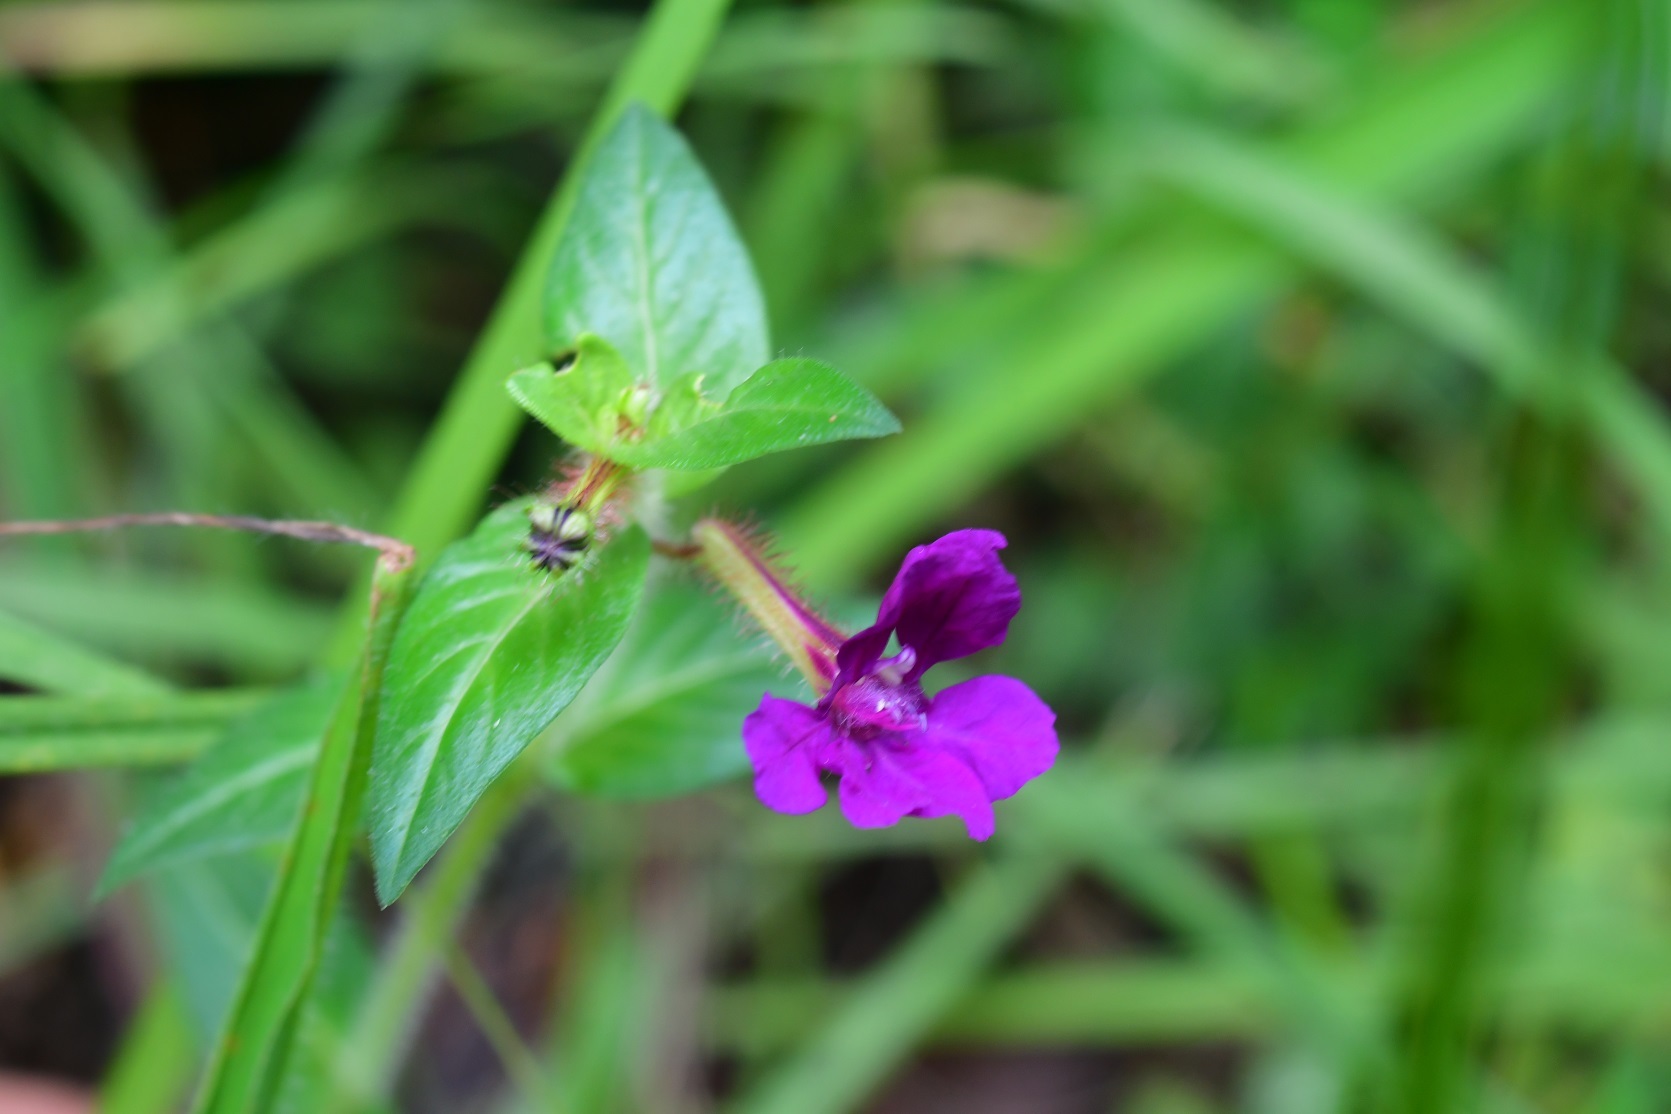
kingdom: Plantae
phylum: Tracheophyta
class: Magnoliopsida
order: Myrtales
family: Lythraceae
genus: Cuphea
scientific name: Cuphea aequipetala
